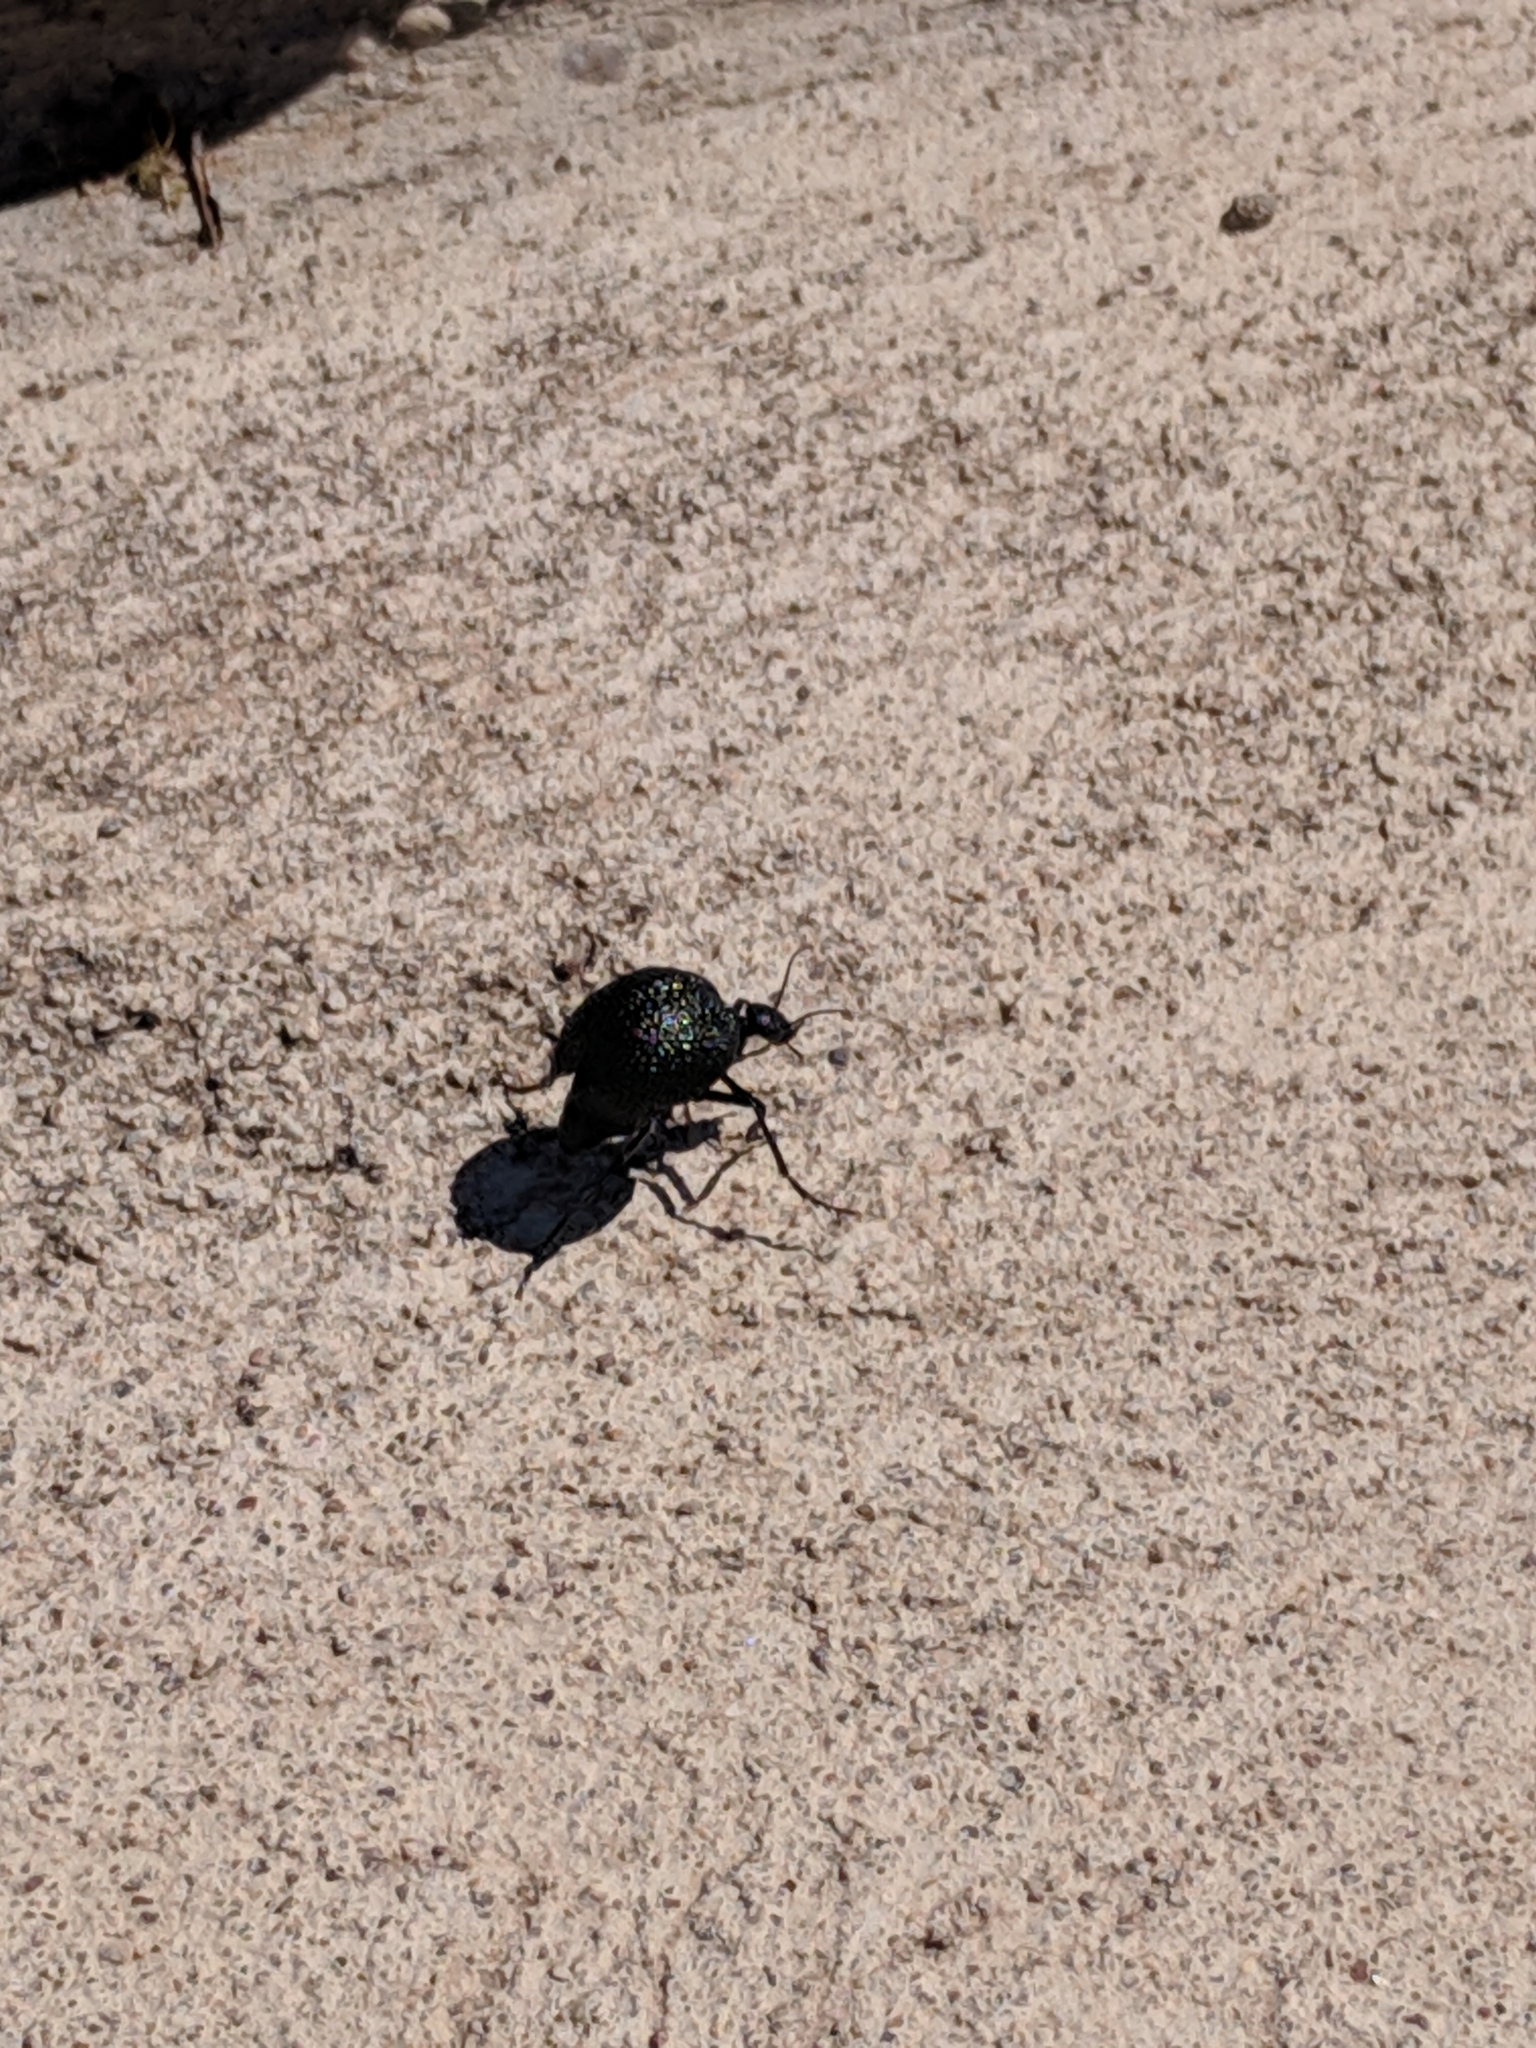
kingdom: Animalia
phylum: Arthropoda
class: Insecta
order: Coleoptera
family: Meloidae
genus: Cysteodemus
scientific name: Cysteodemus wislizeni
